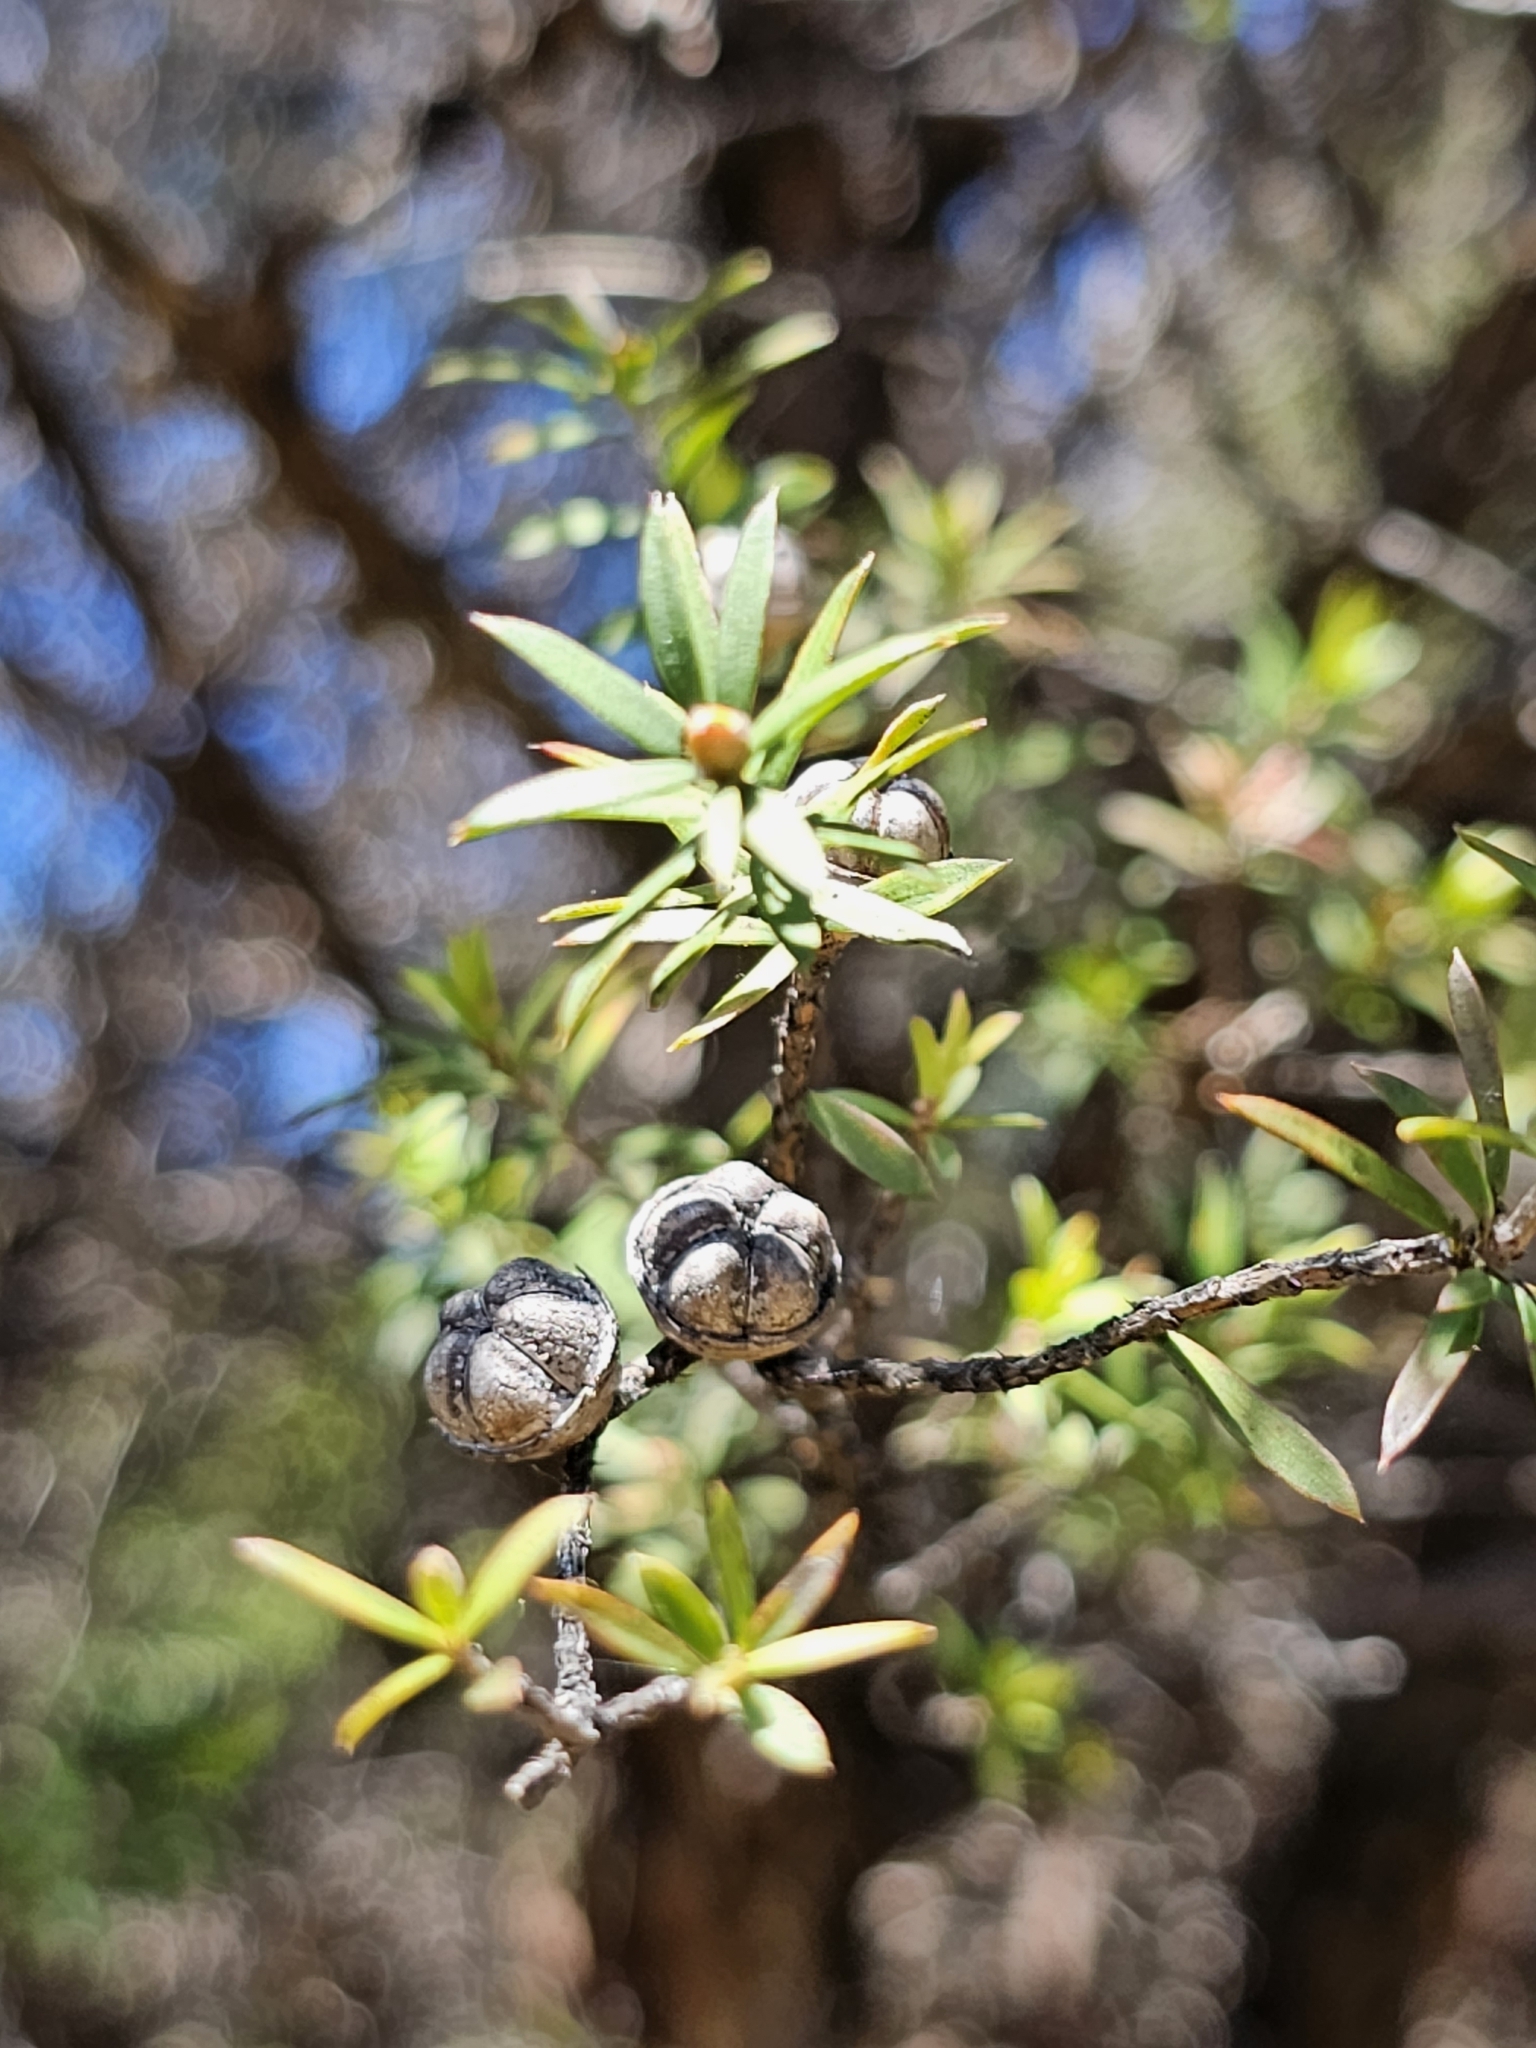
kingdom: Plantae
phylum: Tracheophyta
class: Magnoliopsida
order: Myrtales
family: Myrtaceae
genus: Leptospermum
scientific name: Leptospermum scoparium
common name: Broom tea-tree
